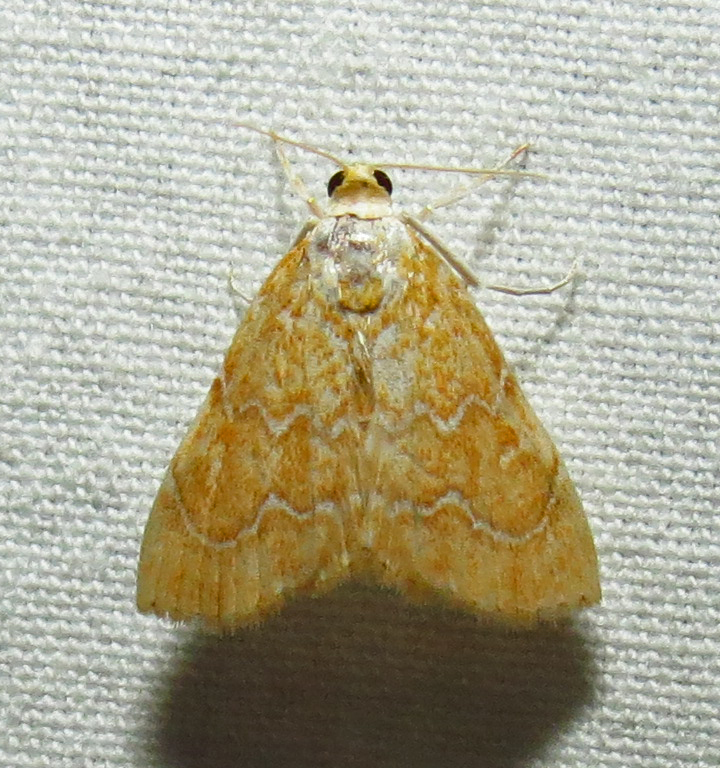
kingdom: Animalia
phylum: Arthropoda
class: Insecta
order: Lepidoptera
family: Crambidae
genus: Glaphyria
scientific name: Glaphyria sesquistrialis
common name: White-roped glaphyria
